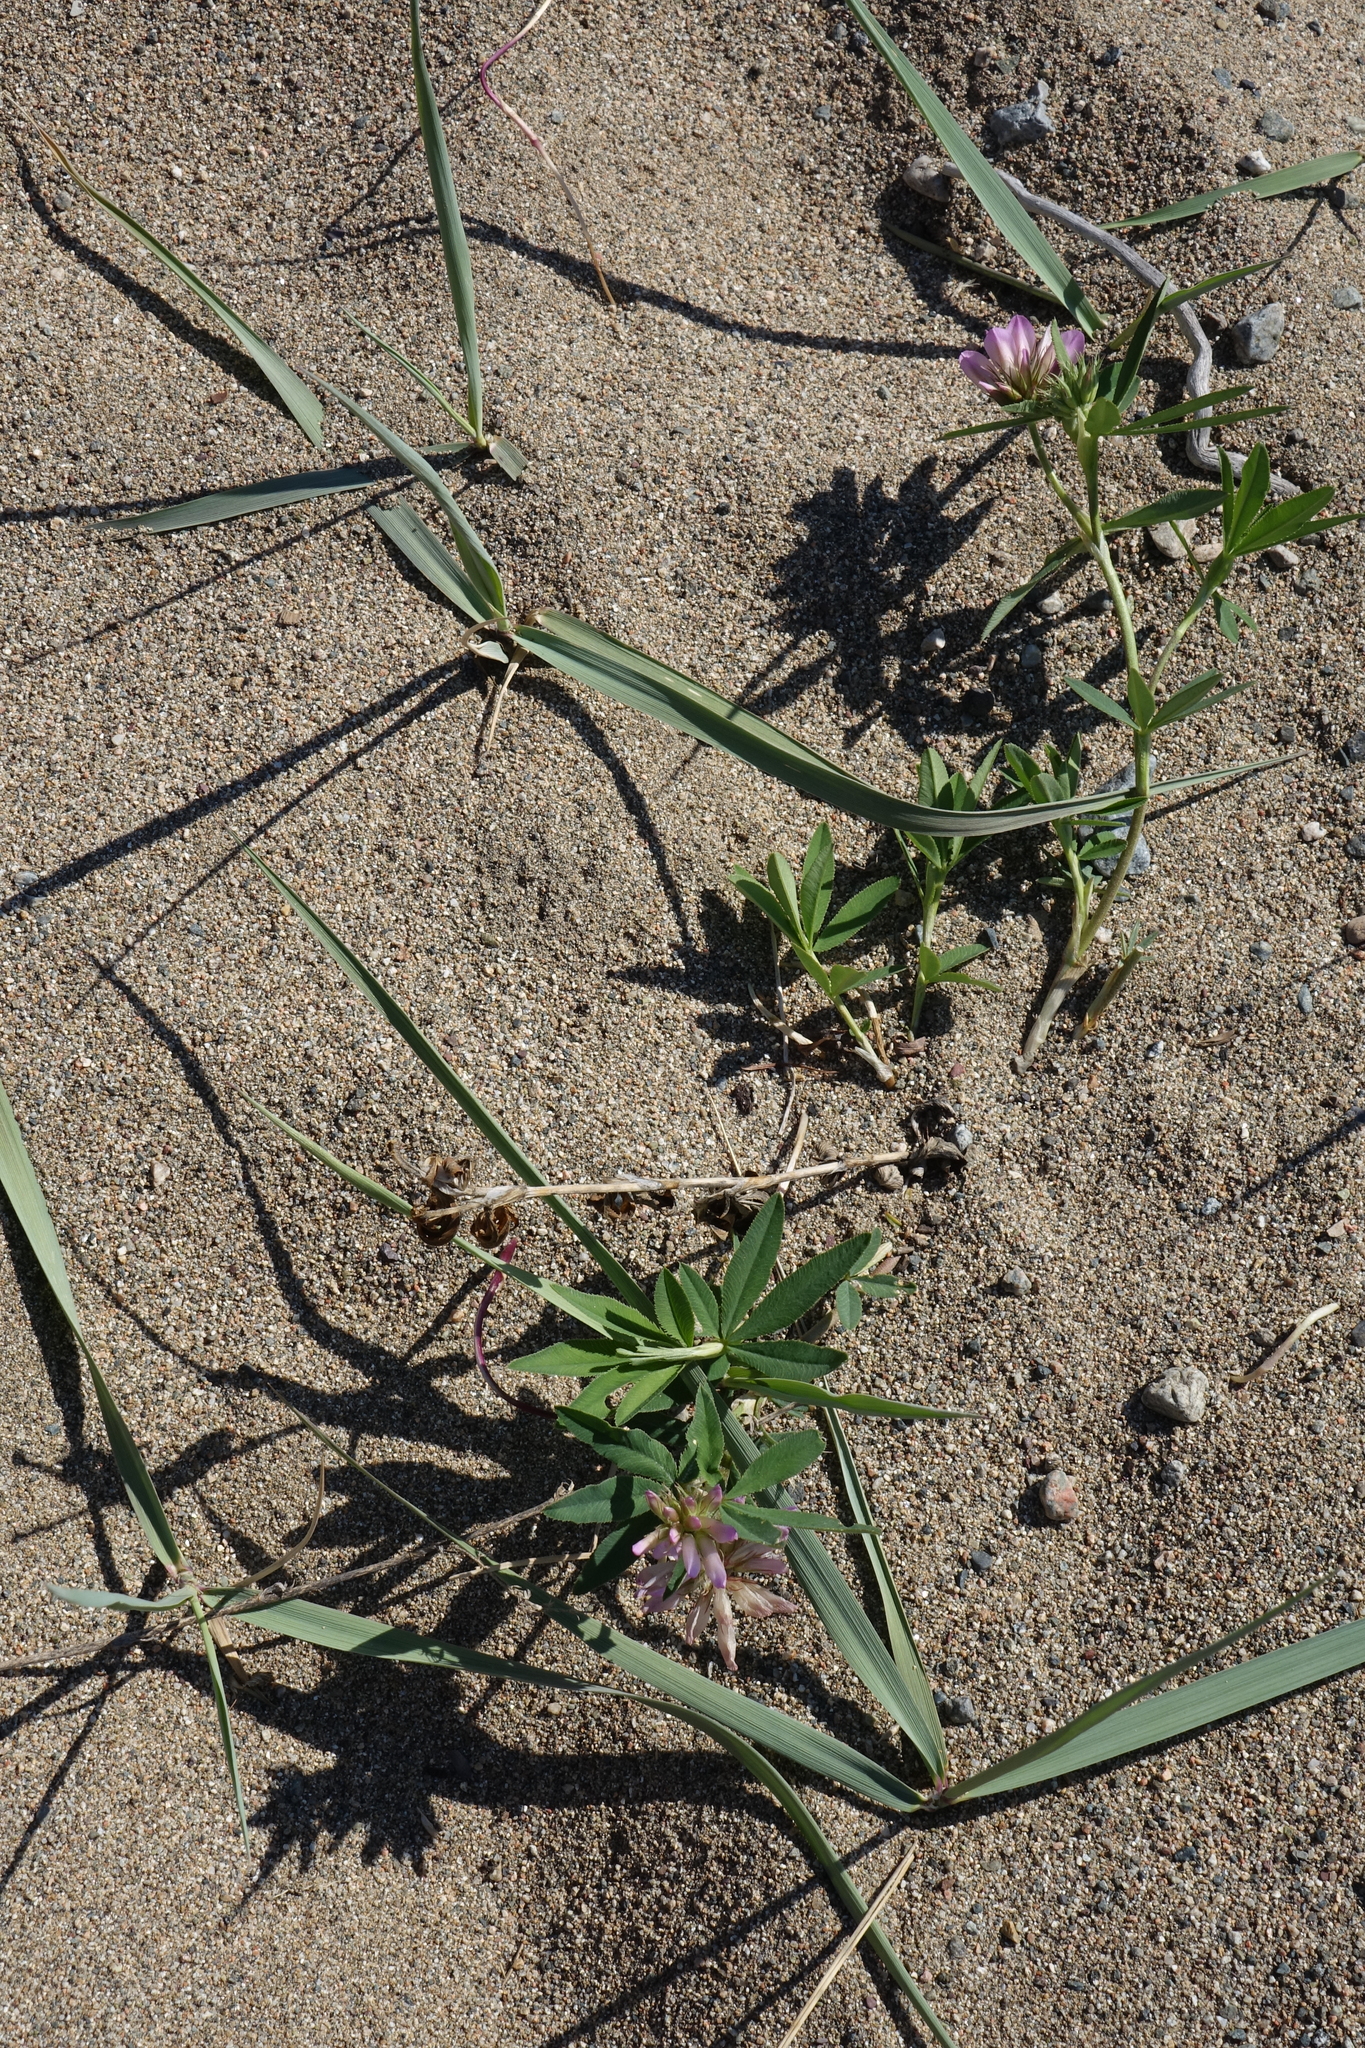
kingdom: Plantae
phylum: Tracheophyta
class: Magnoliopsida
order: Fabales
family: Fabaceae
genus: Trifolium
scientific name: Trifolium lupinaster
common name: Lupine clover
